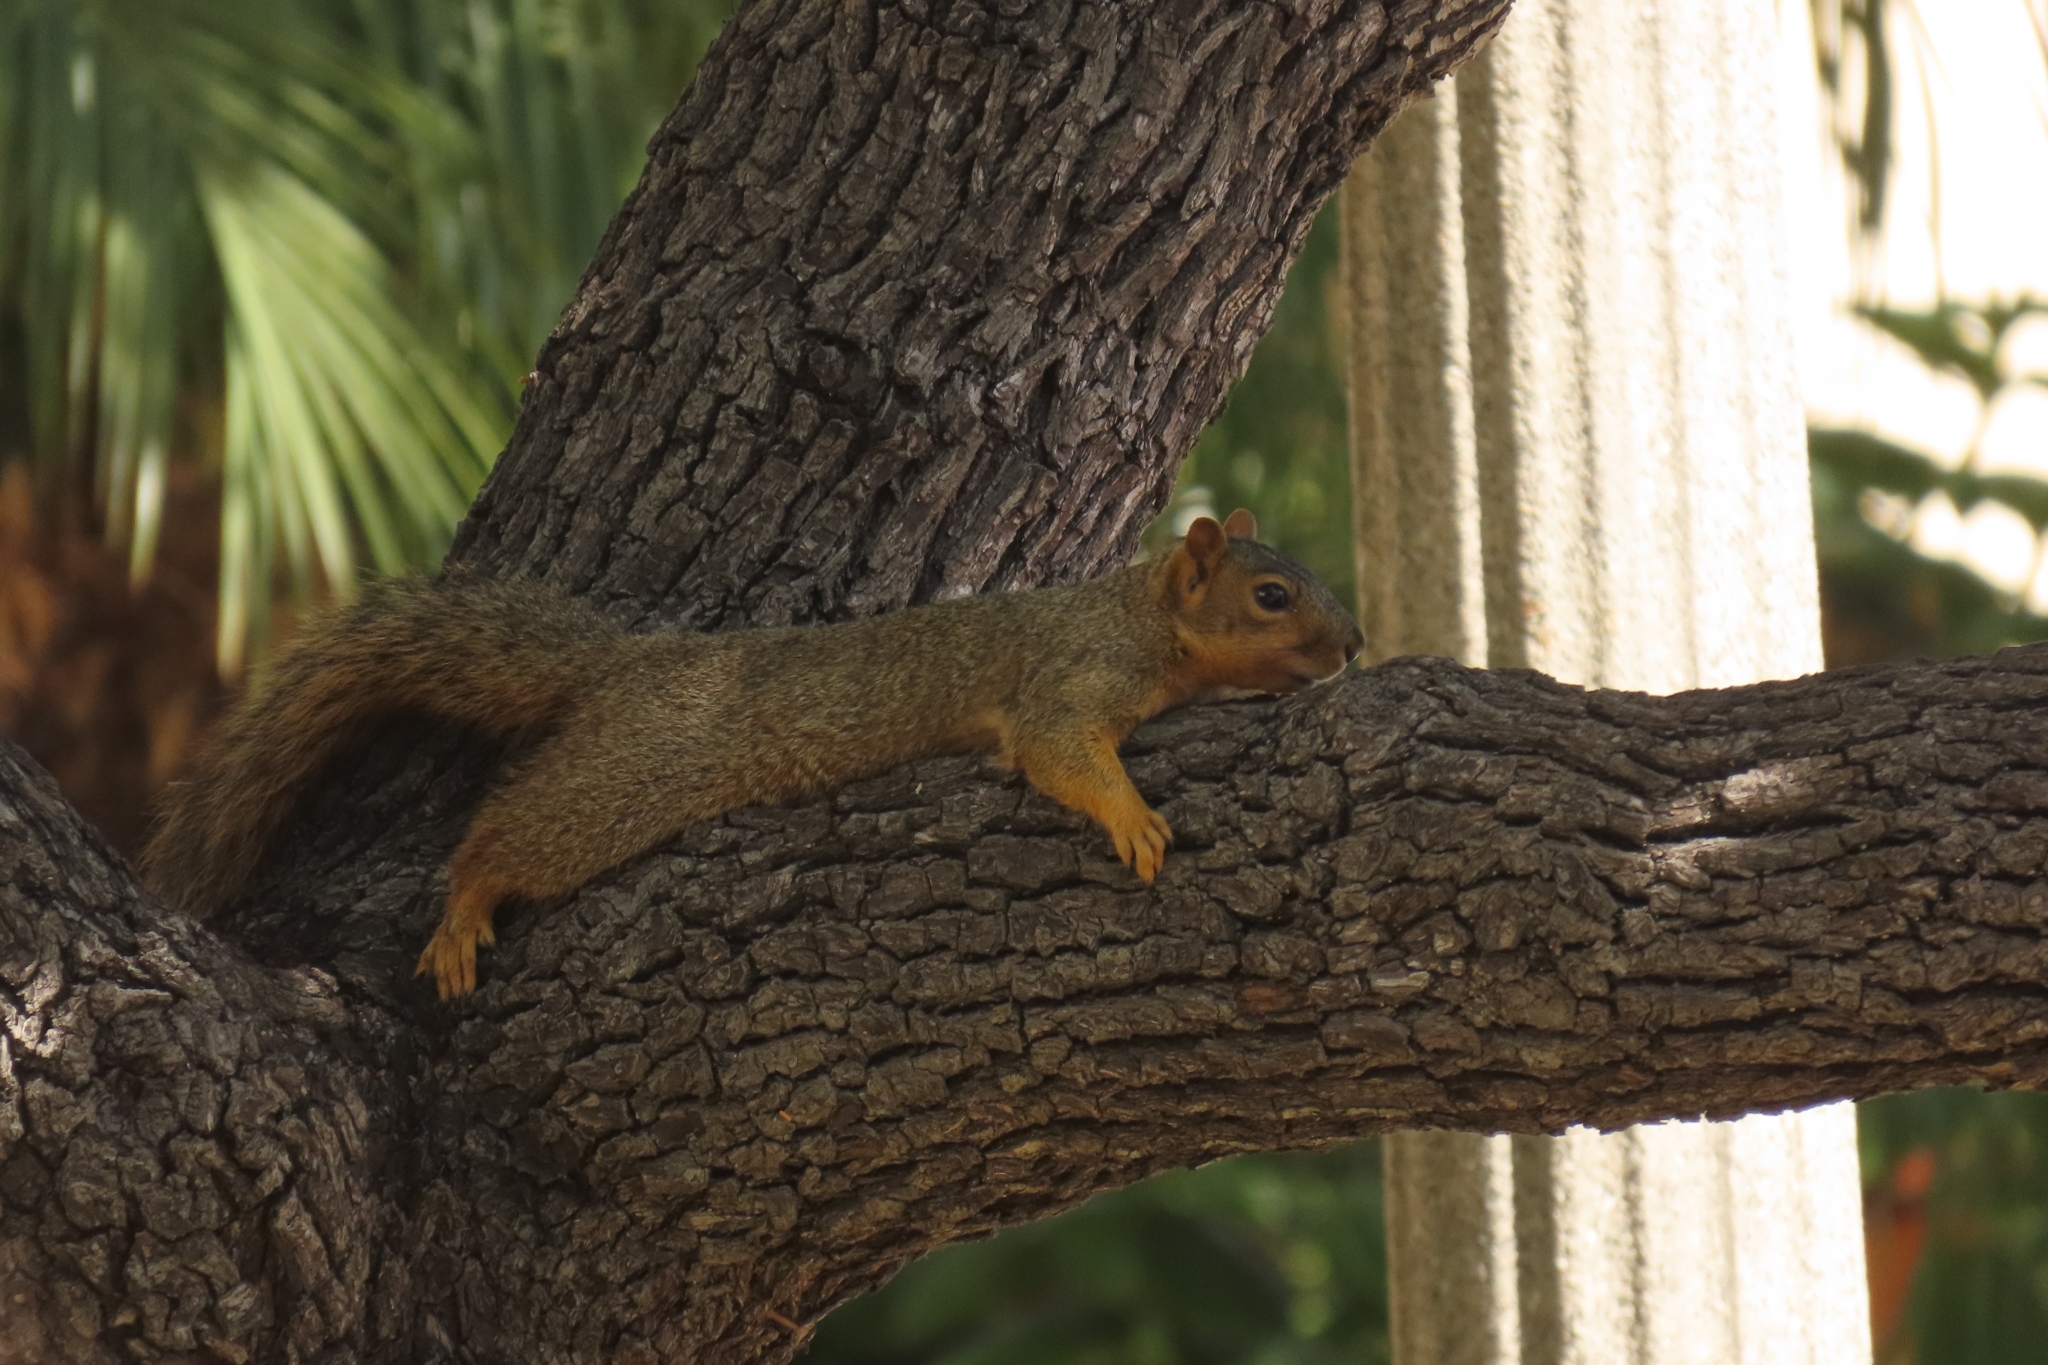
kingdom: Animalia
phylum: Chordata
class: Mammalia
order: Rodentia
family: Sciuridae
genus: Sciurus
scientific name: Sciurus niger
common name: Fox squirrel
